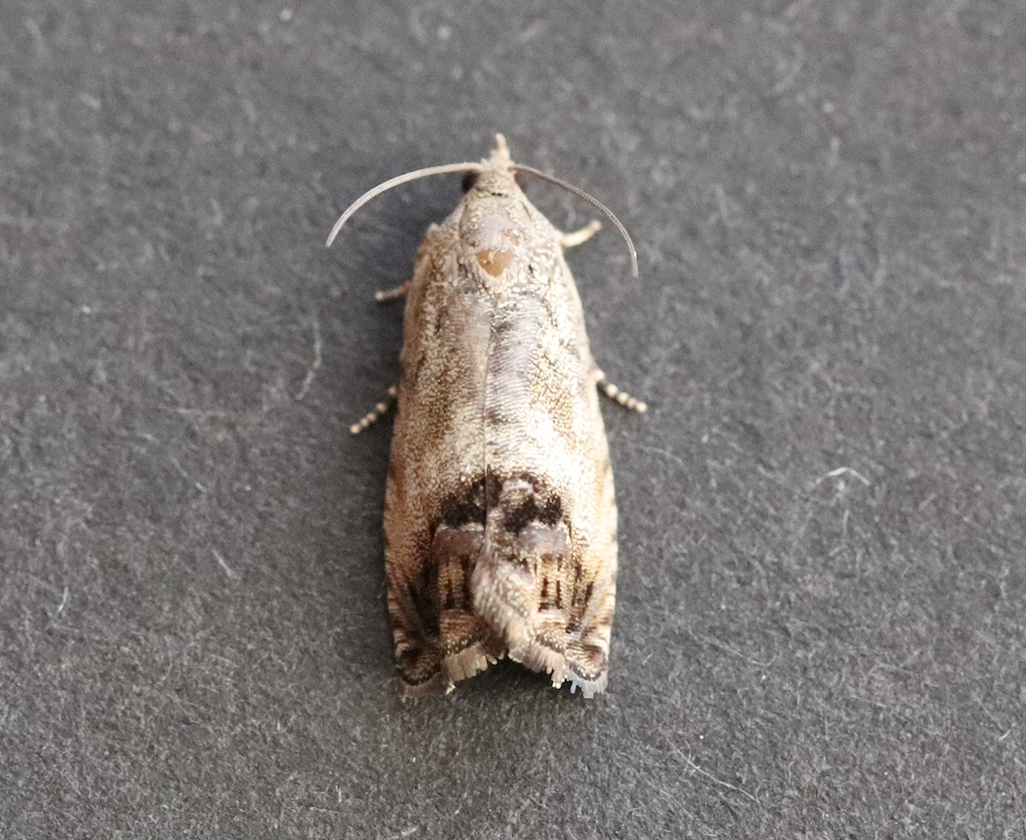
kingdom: Animalia
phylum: Arthropoda
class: Insecta
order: Lepidoptera
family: Tortricidae
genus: Cydia
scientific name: Cydia splendana
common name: De: kastanienwickler, eichenwickler es: oruga de la castaña fr: carpocapse des châtaignes it: cidia o tortrice tardiva delle castagne pt: bichado das castanhas gb: acorn moth, chestnut fruit tortrix
